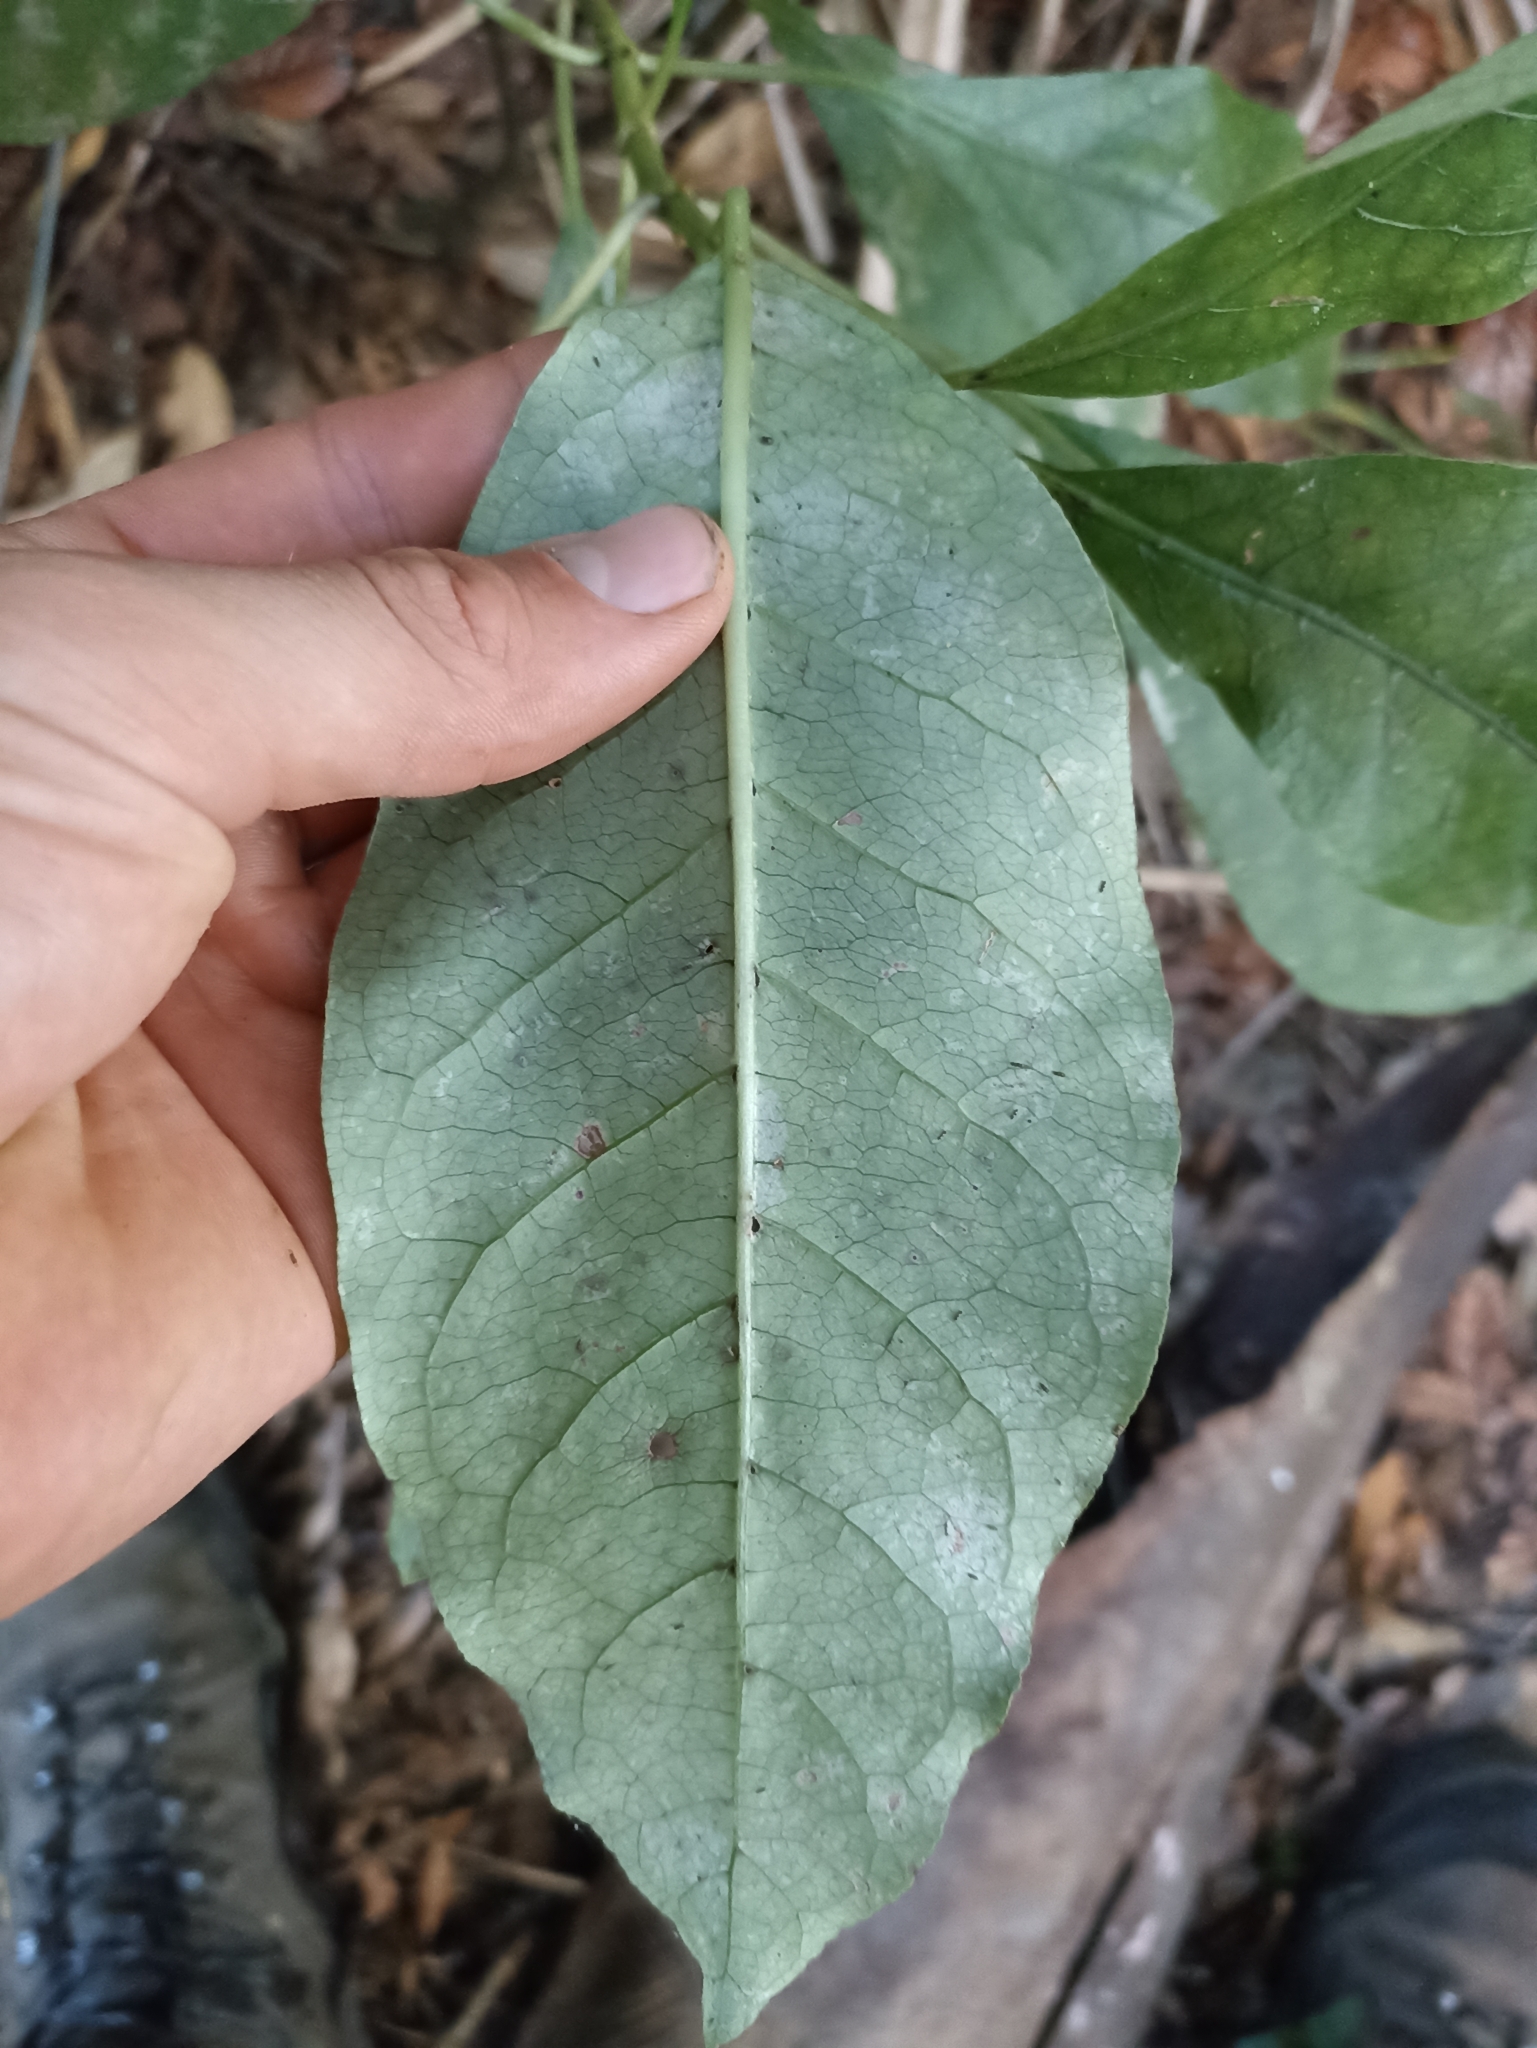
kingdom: Plantae
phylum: Tracheophyta
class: Magnoliopsida
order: Gentianales
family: Rubiaceae
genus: Coprosma
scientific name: Coprosma autumnalis
